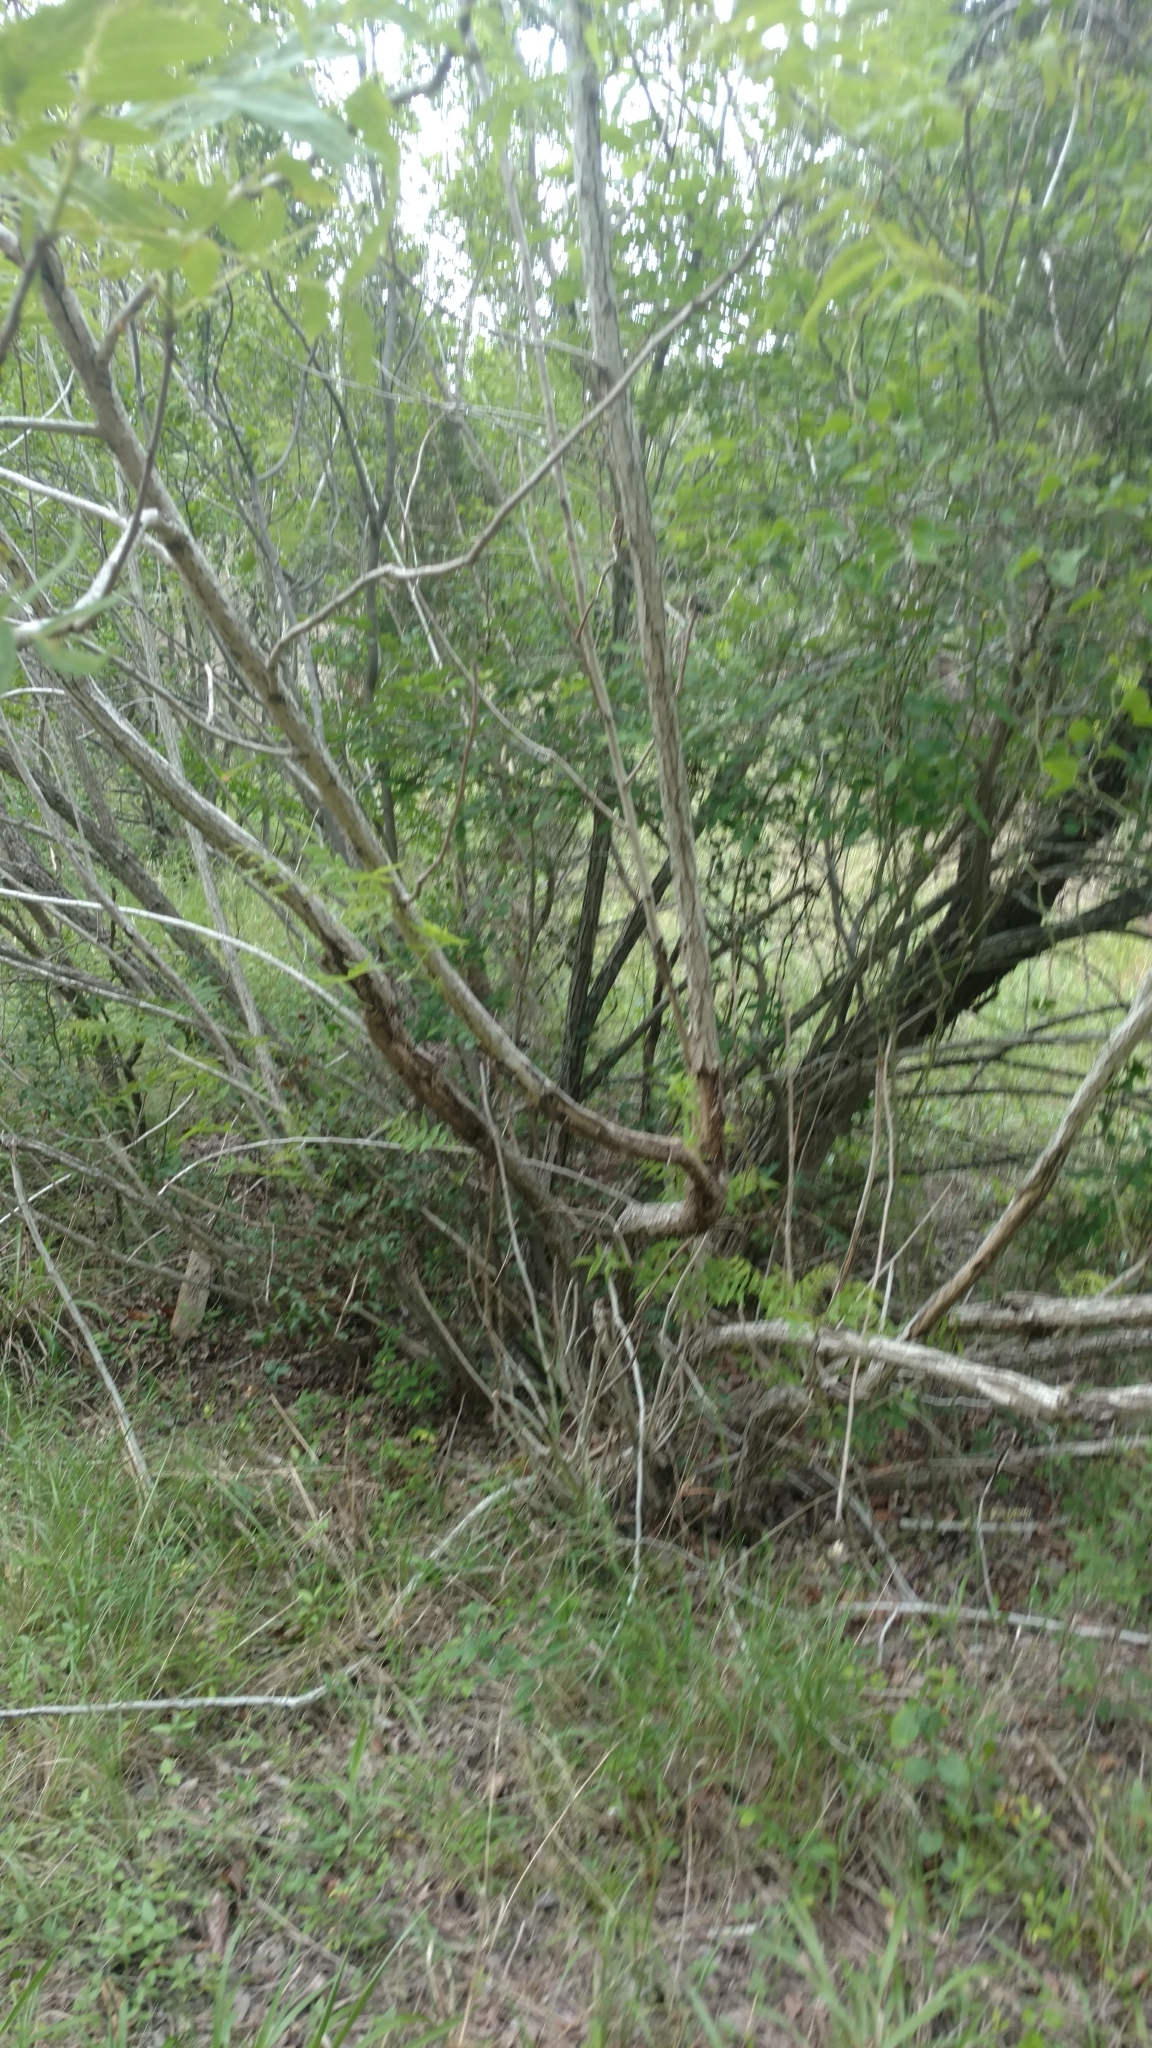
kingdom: Plantae
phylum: Tracheophyta
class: Magnoliopsida
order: Fagales
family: Juglandaceae
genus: Juglans
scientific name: Juglans microcarpa
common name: Texas walnut
